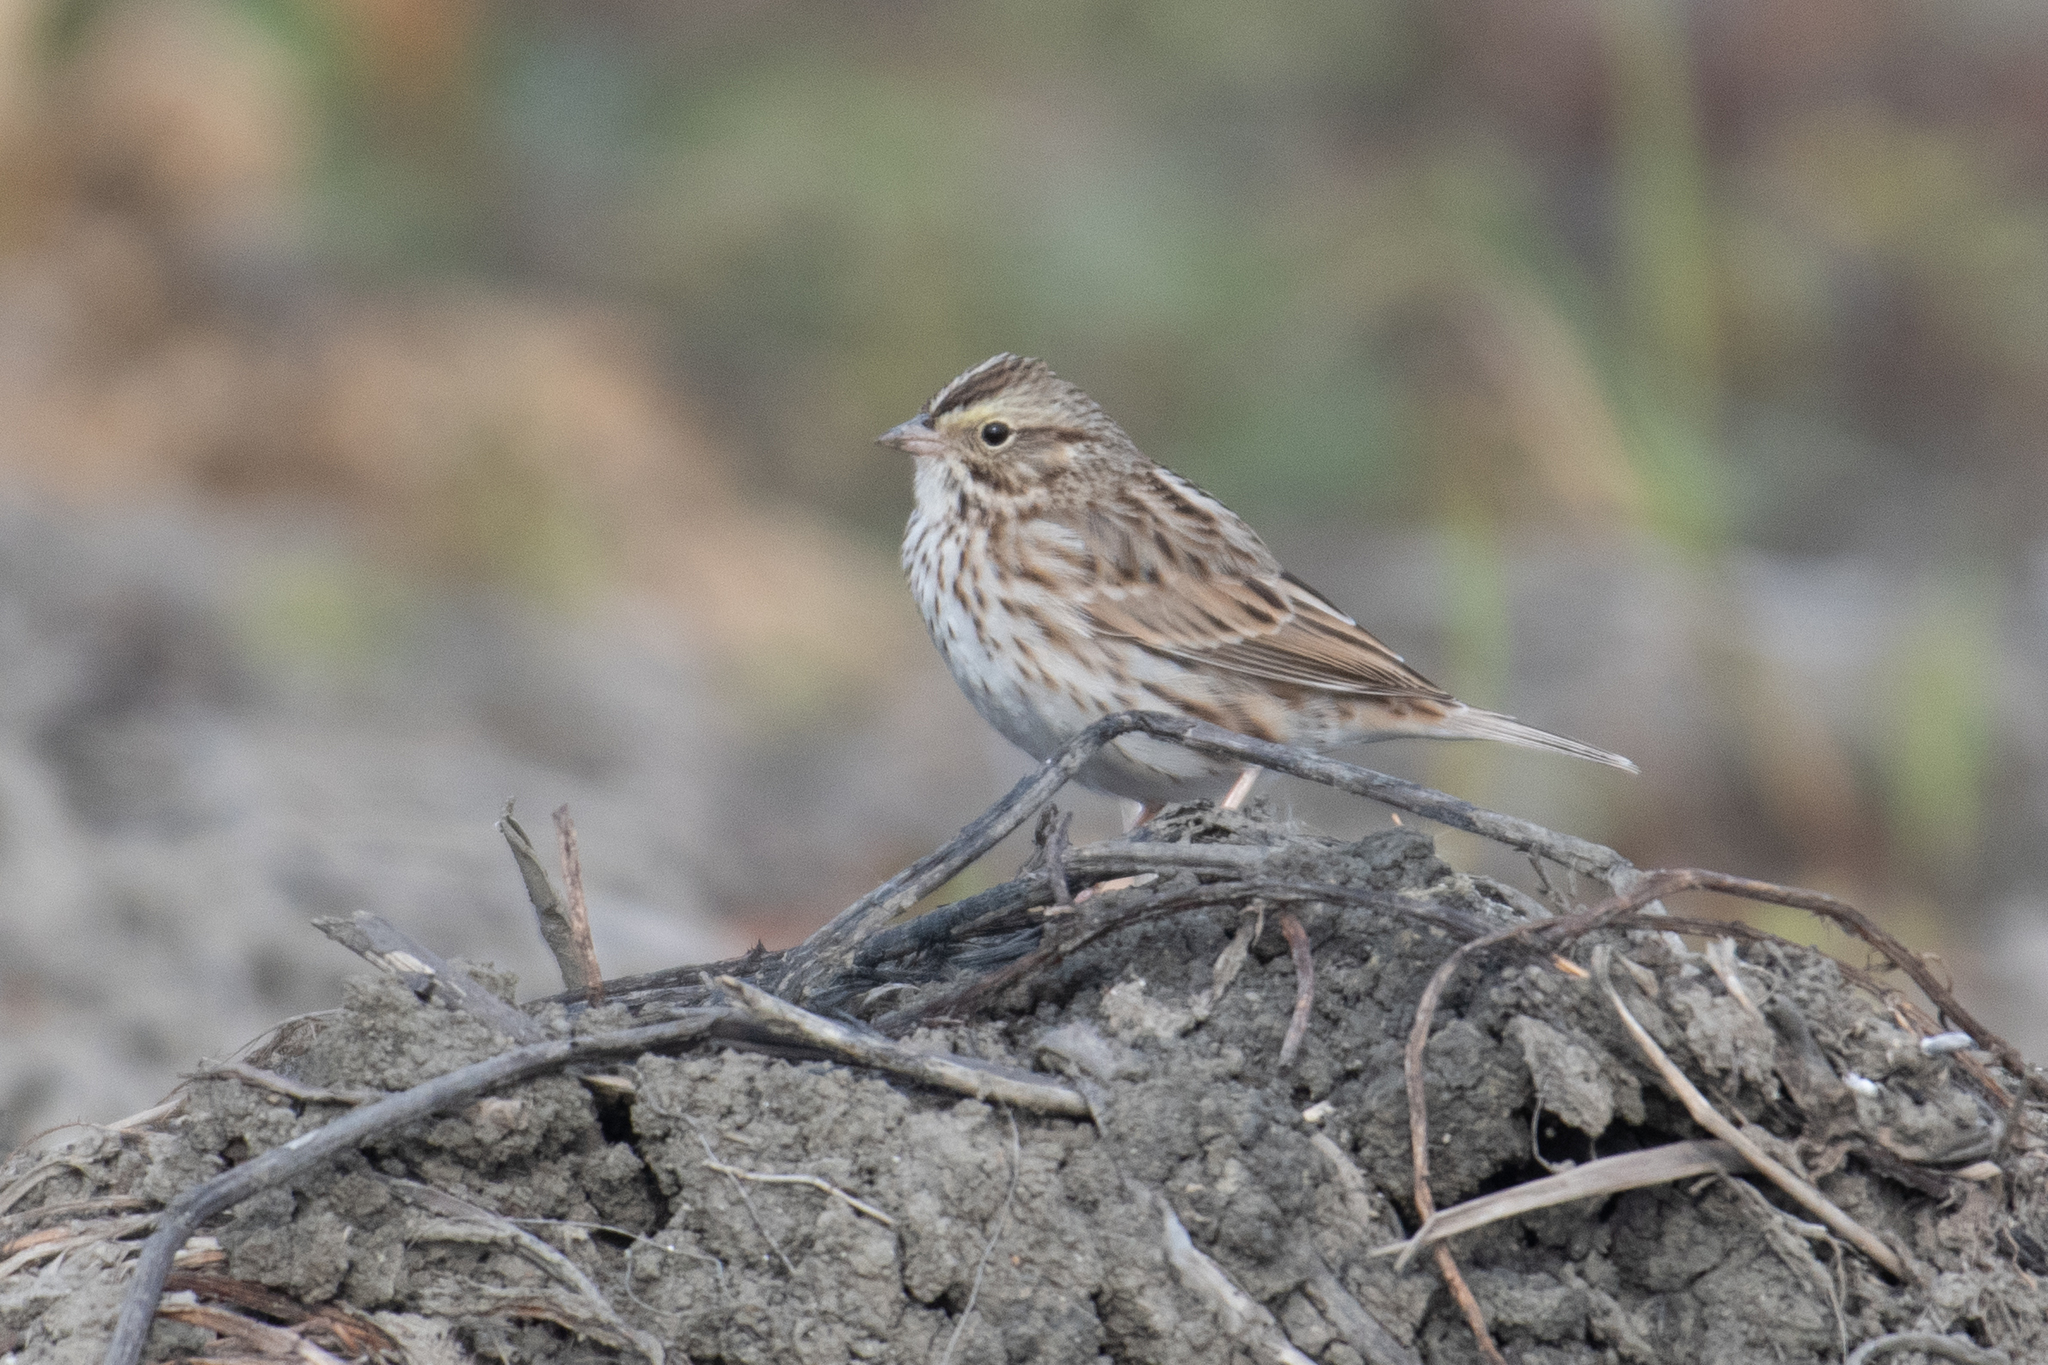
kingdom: Animalia
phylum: Chordata
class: Aves
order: Passeriformes
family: Passerellidae
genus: Passerculus
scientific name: Passerculus sandwichensis
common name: Savannah sparrow
